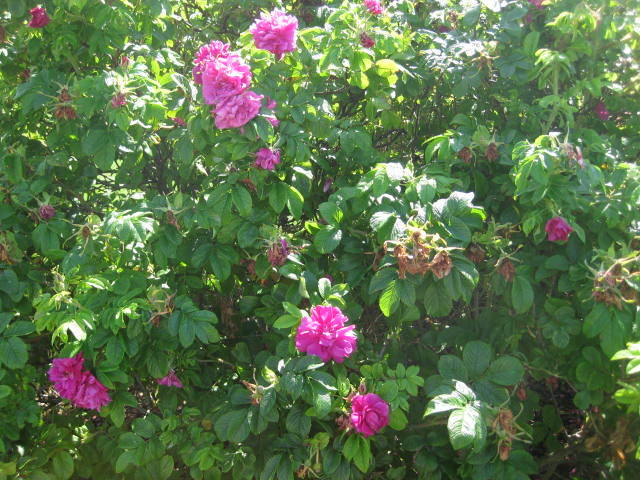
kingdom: Plantae
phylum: Tracheophyta
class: Magnoliopsida
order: Rosales
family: Rosaceae
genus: Rosa
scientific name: Rosa rugosa
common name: Japanese rose
